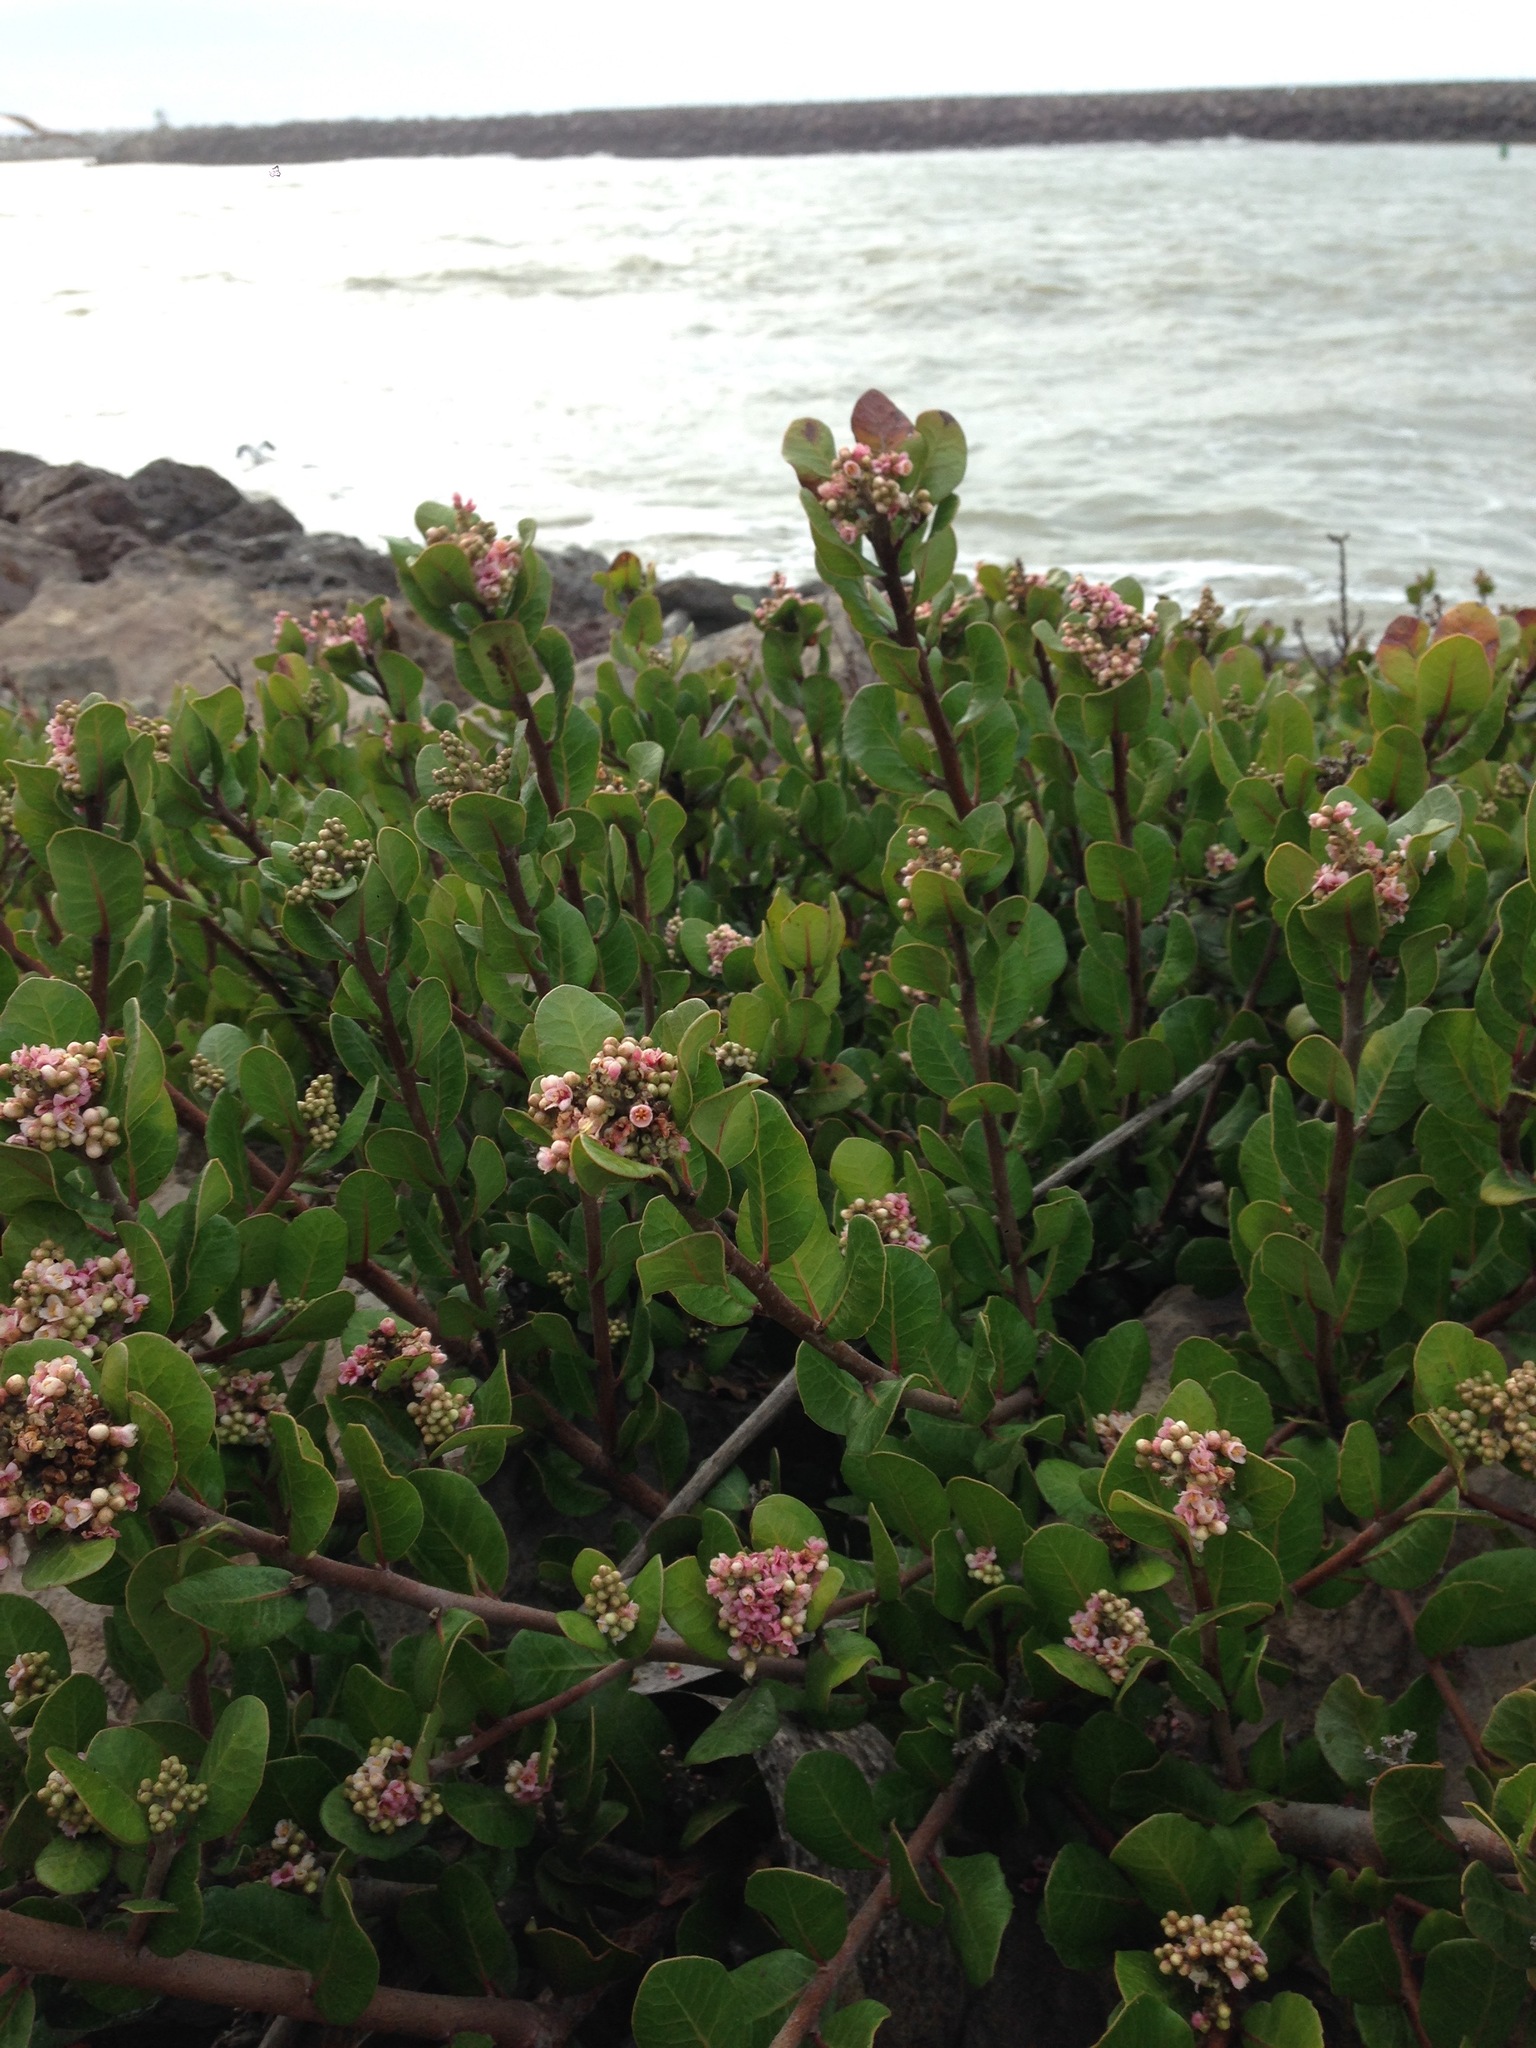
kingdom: Plantae
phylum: Tracheophyta
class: Magnoliopsida
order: Sapindales
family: Anacardiaceae
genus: Rhus
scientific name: Rhus integrifolia
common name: Lemonade sumac
